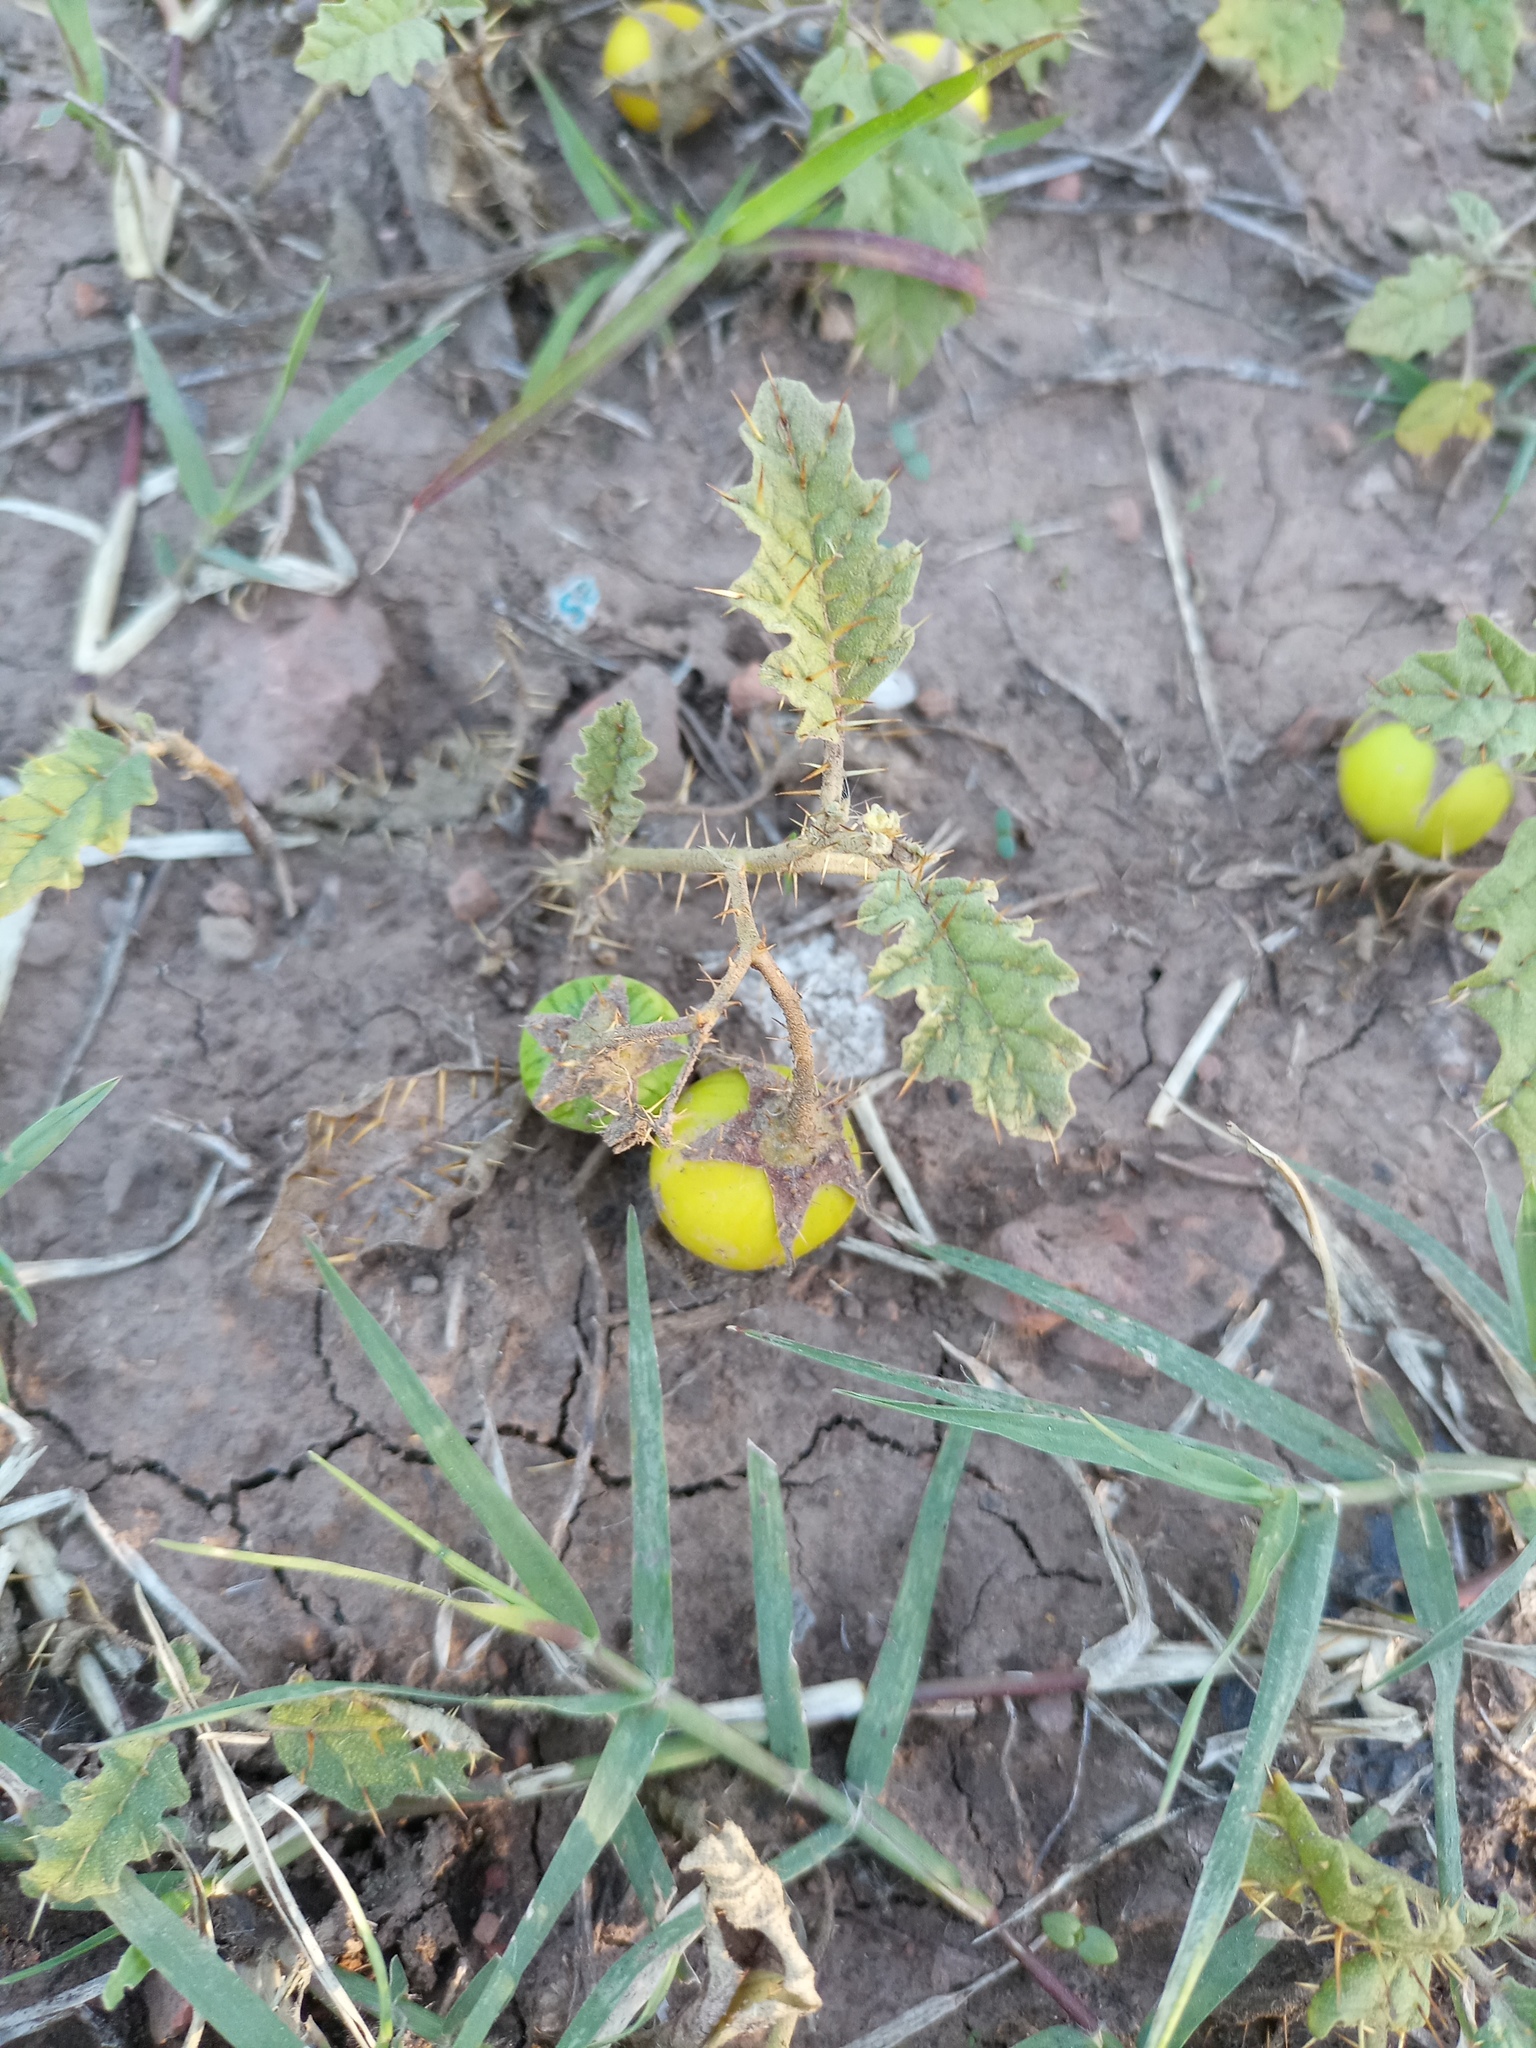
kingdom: Plantae
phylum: Tracheophyta
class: Magnoliopsida
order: Solanales
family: Solanaceae
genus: Solanum
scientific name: Solanum juvenale
